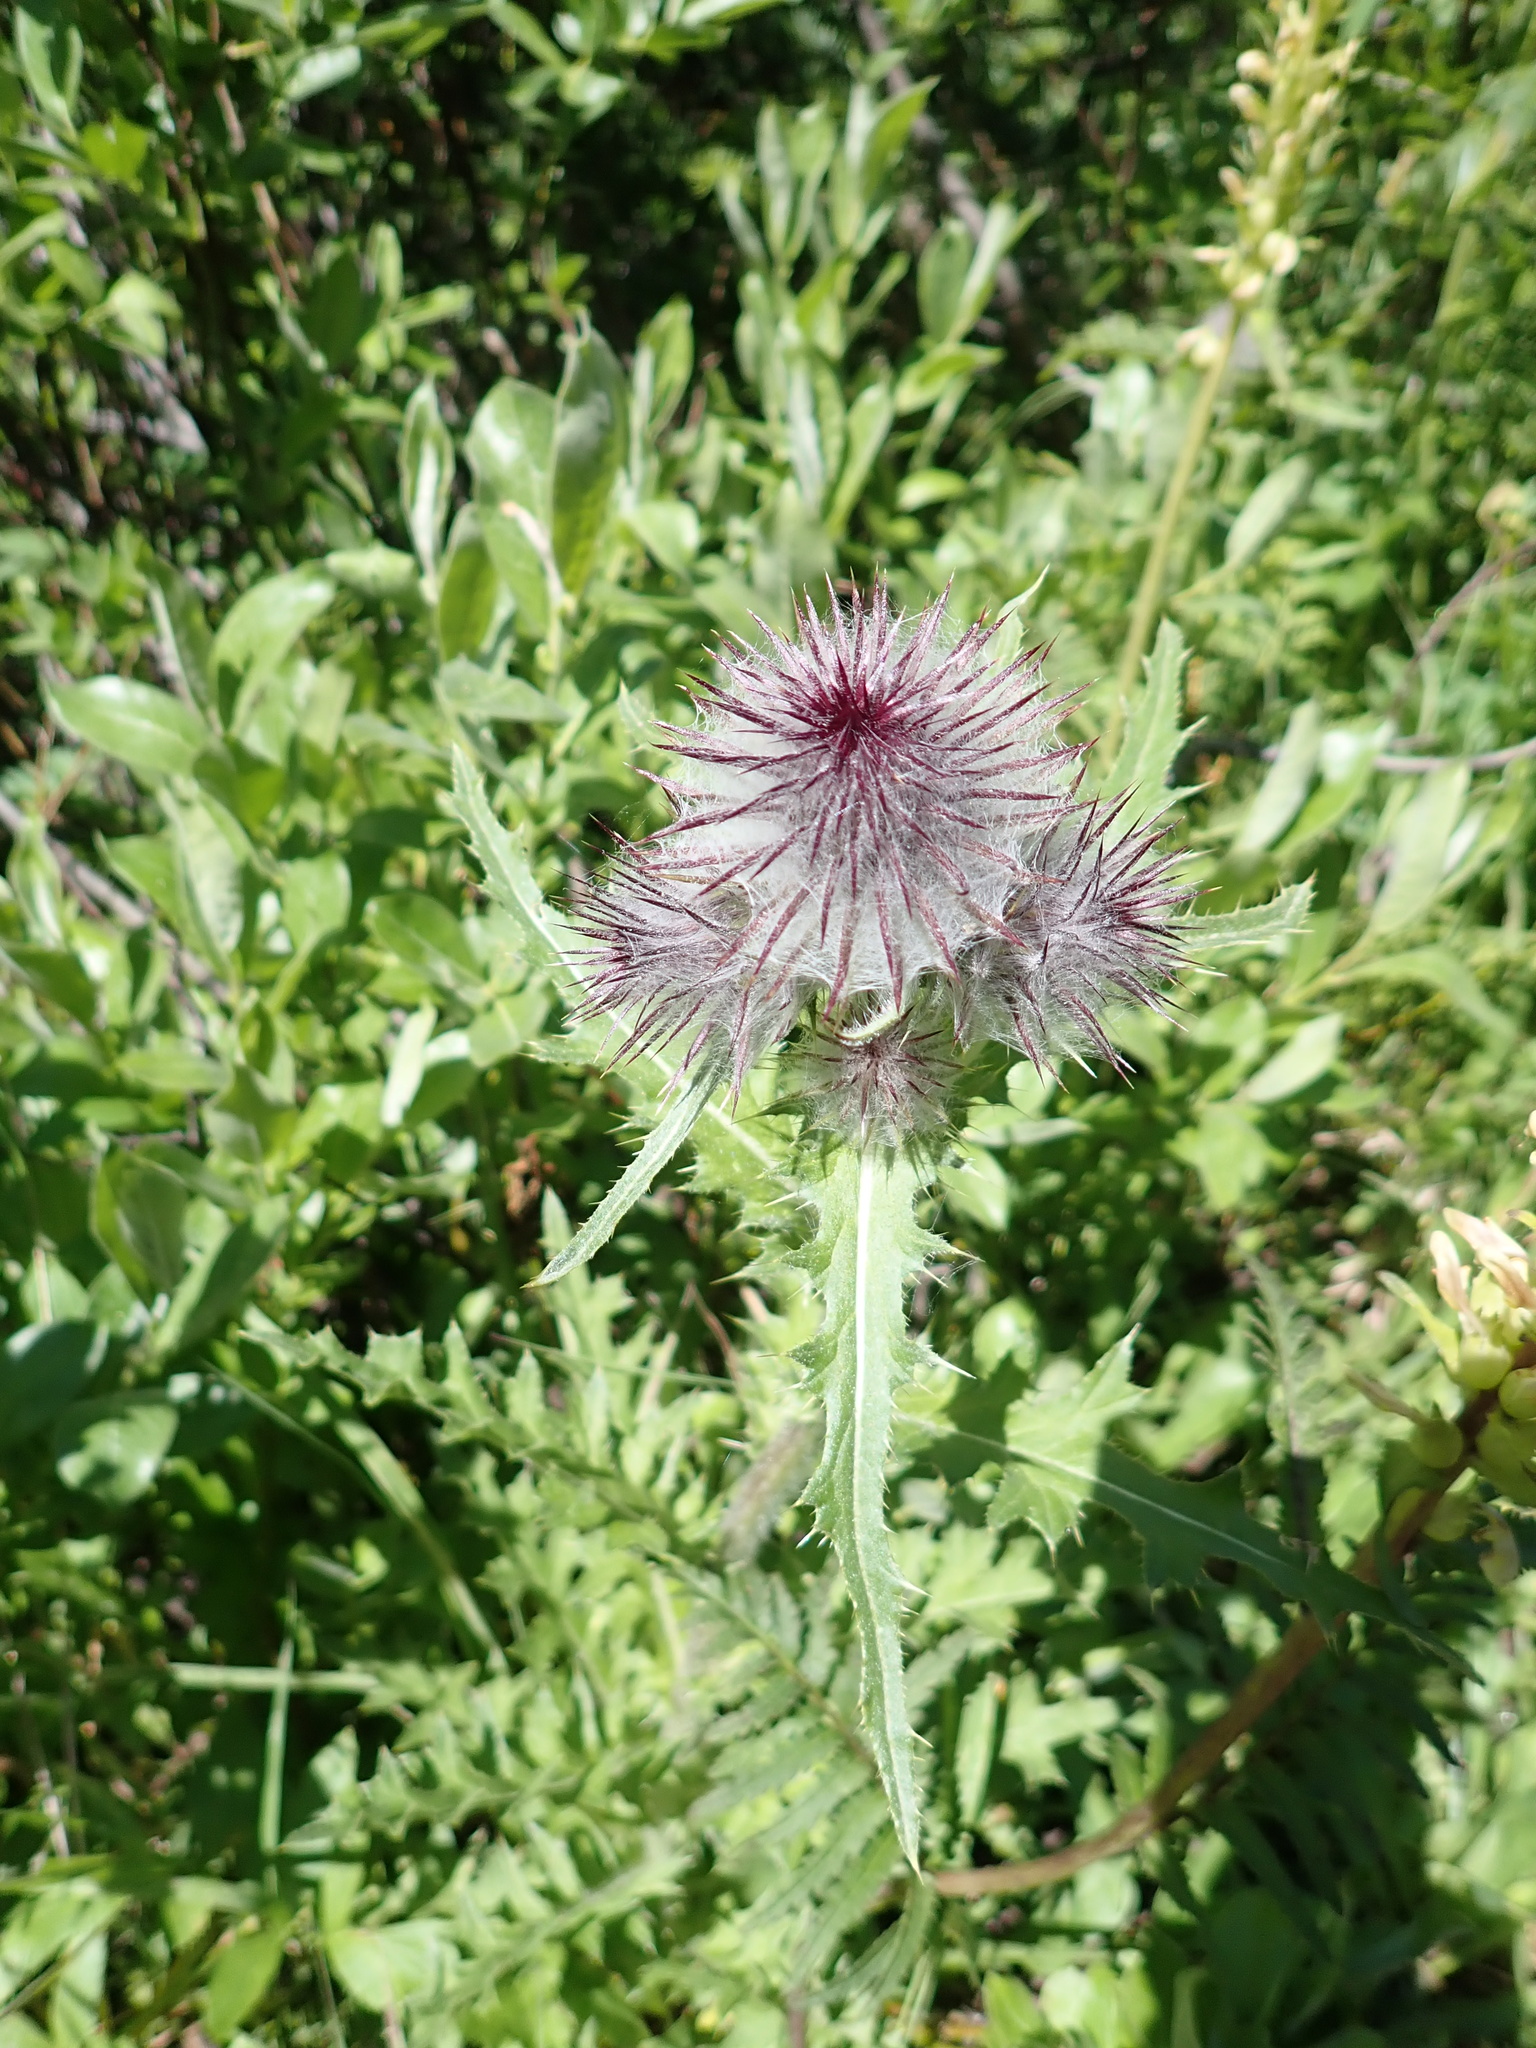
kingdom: Plantae
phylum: Tracheophyta
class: Magnoliopsida
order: Asterales
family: Asteraceae
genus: Cirsium
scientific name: Cirsium edule
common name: Indian thistle
